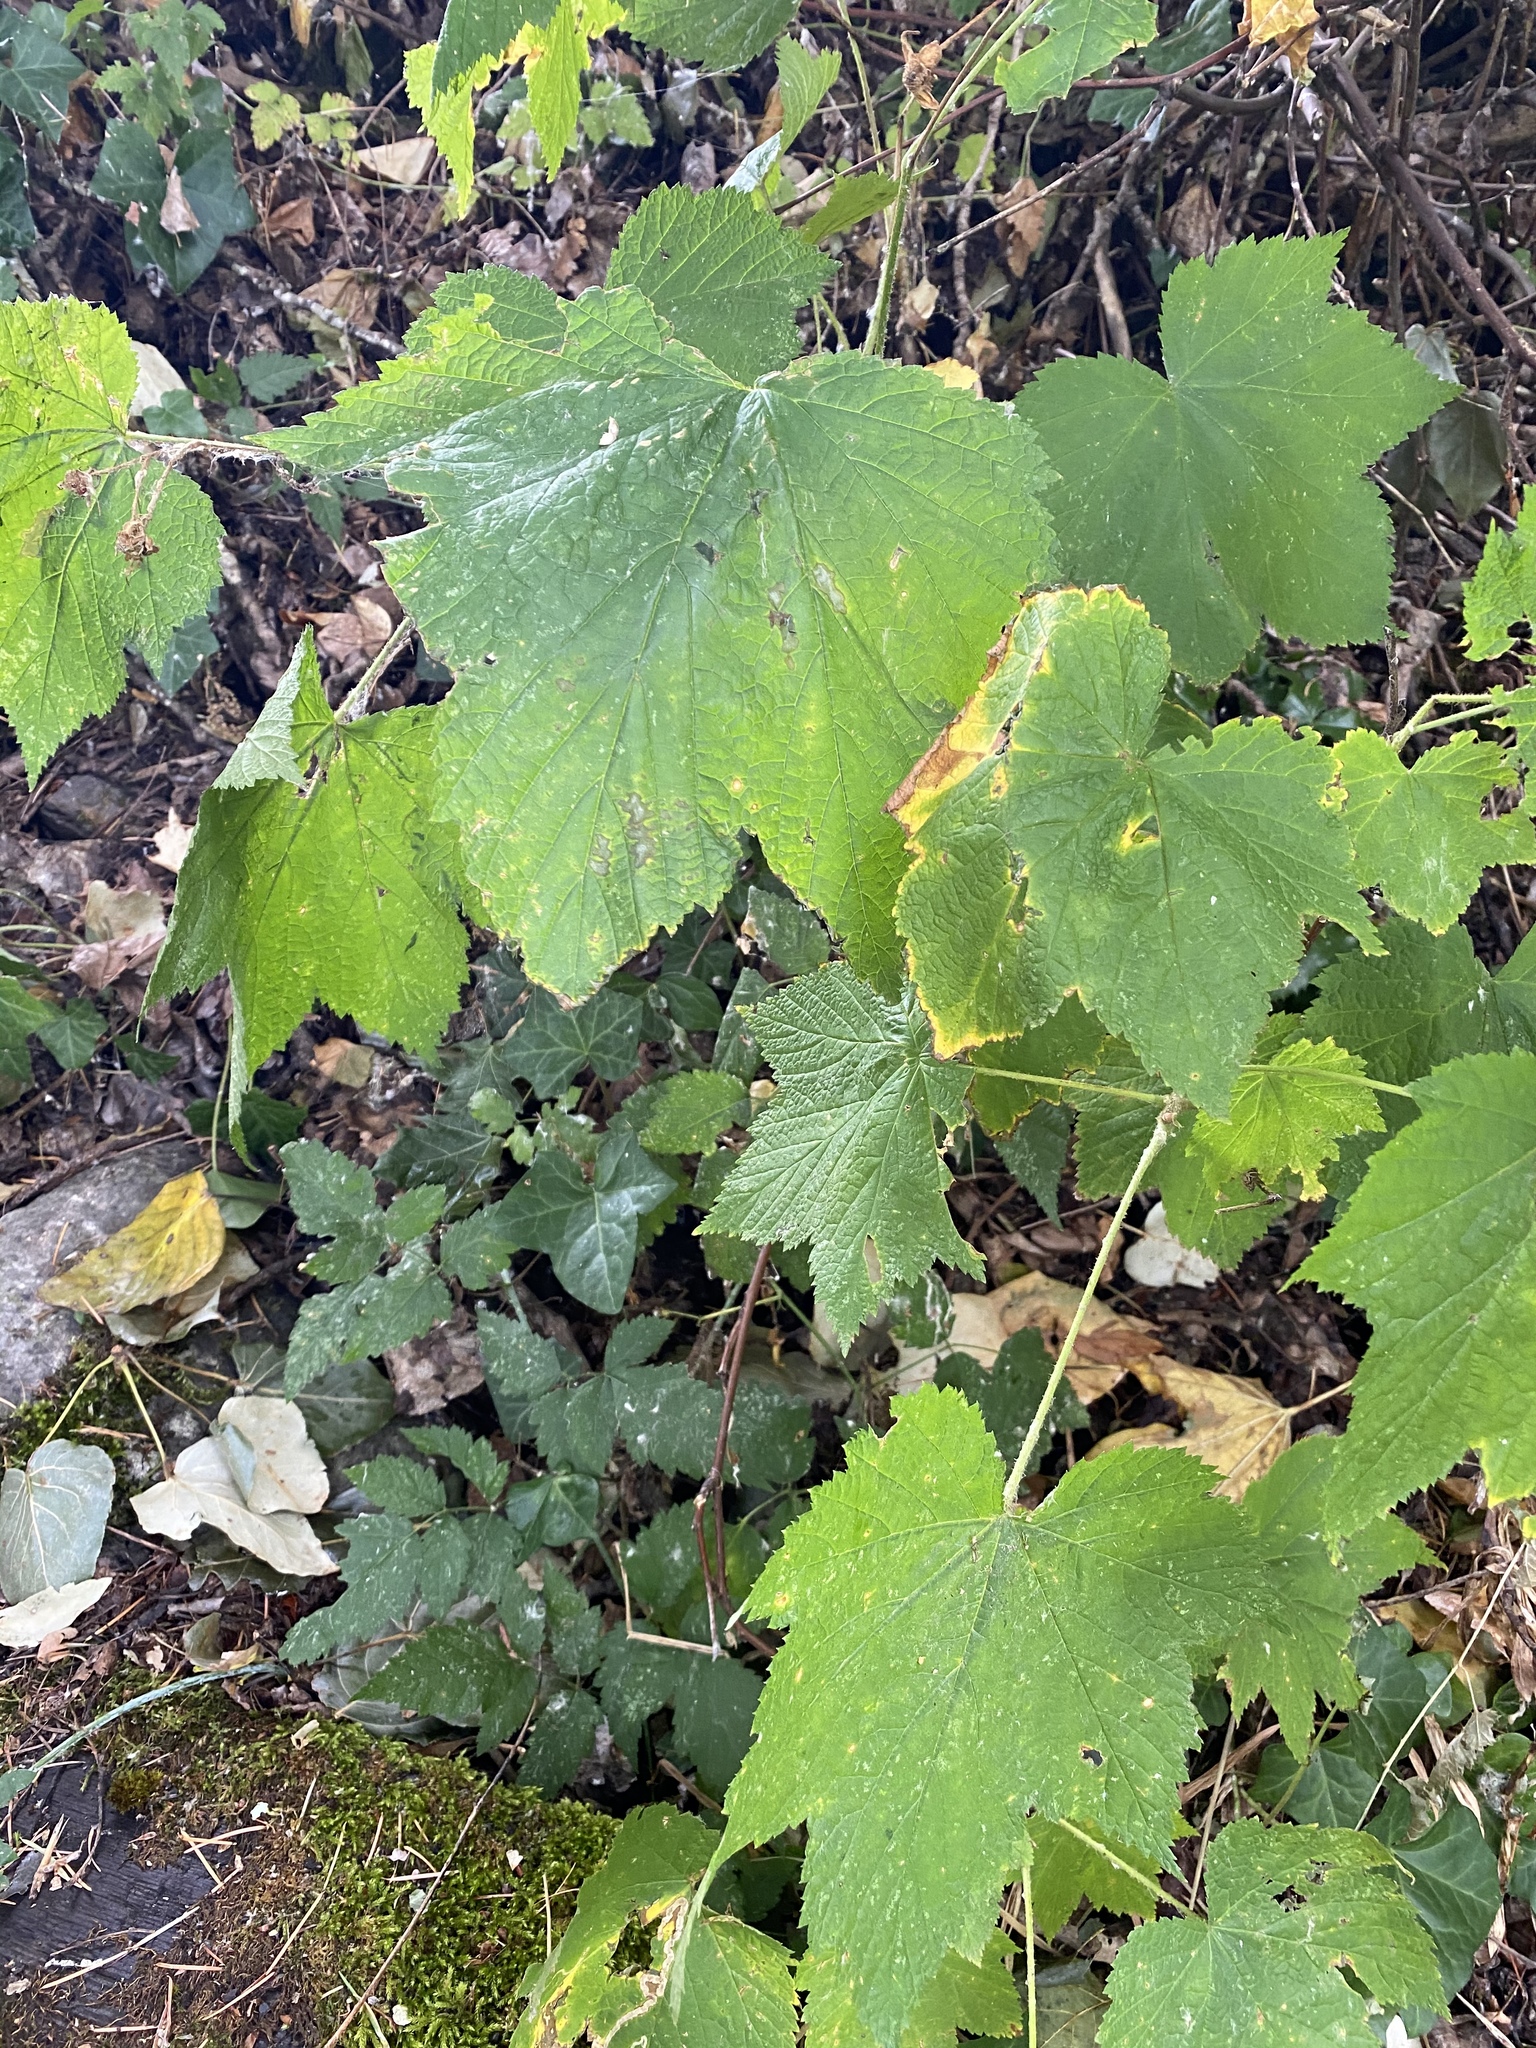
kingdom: Plantae
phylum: Tracheophyta
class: Magnoliopsida
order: Rosales
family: Rosaceae
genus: Rubus
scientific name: Rubus parviflorus
